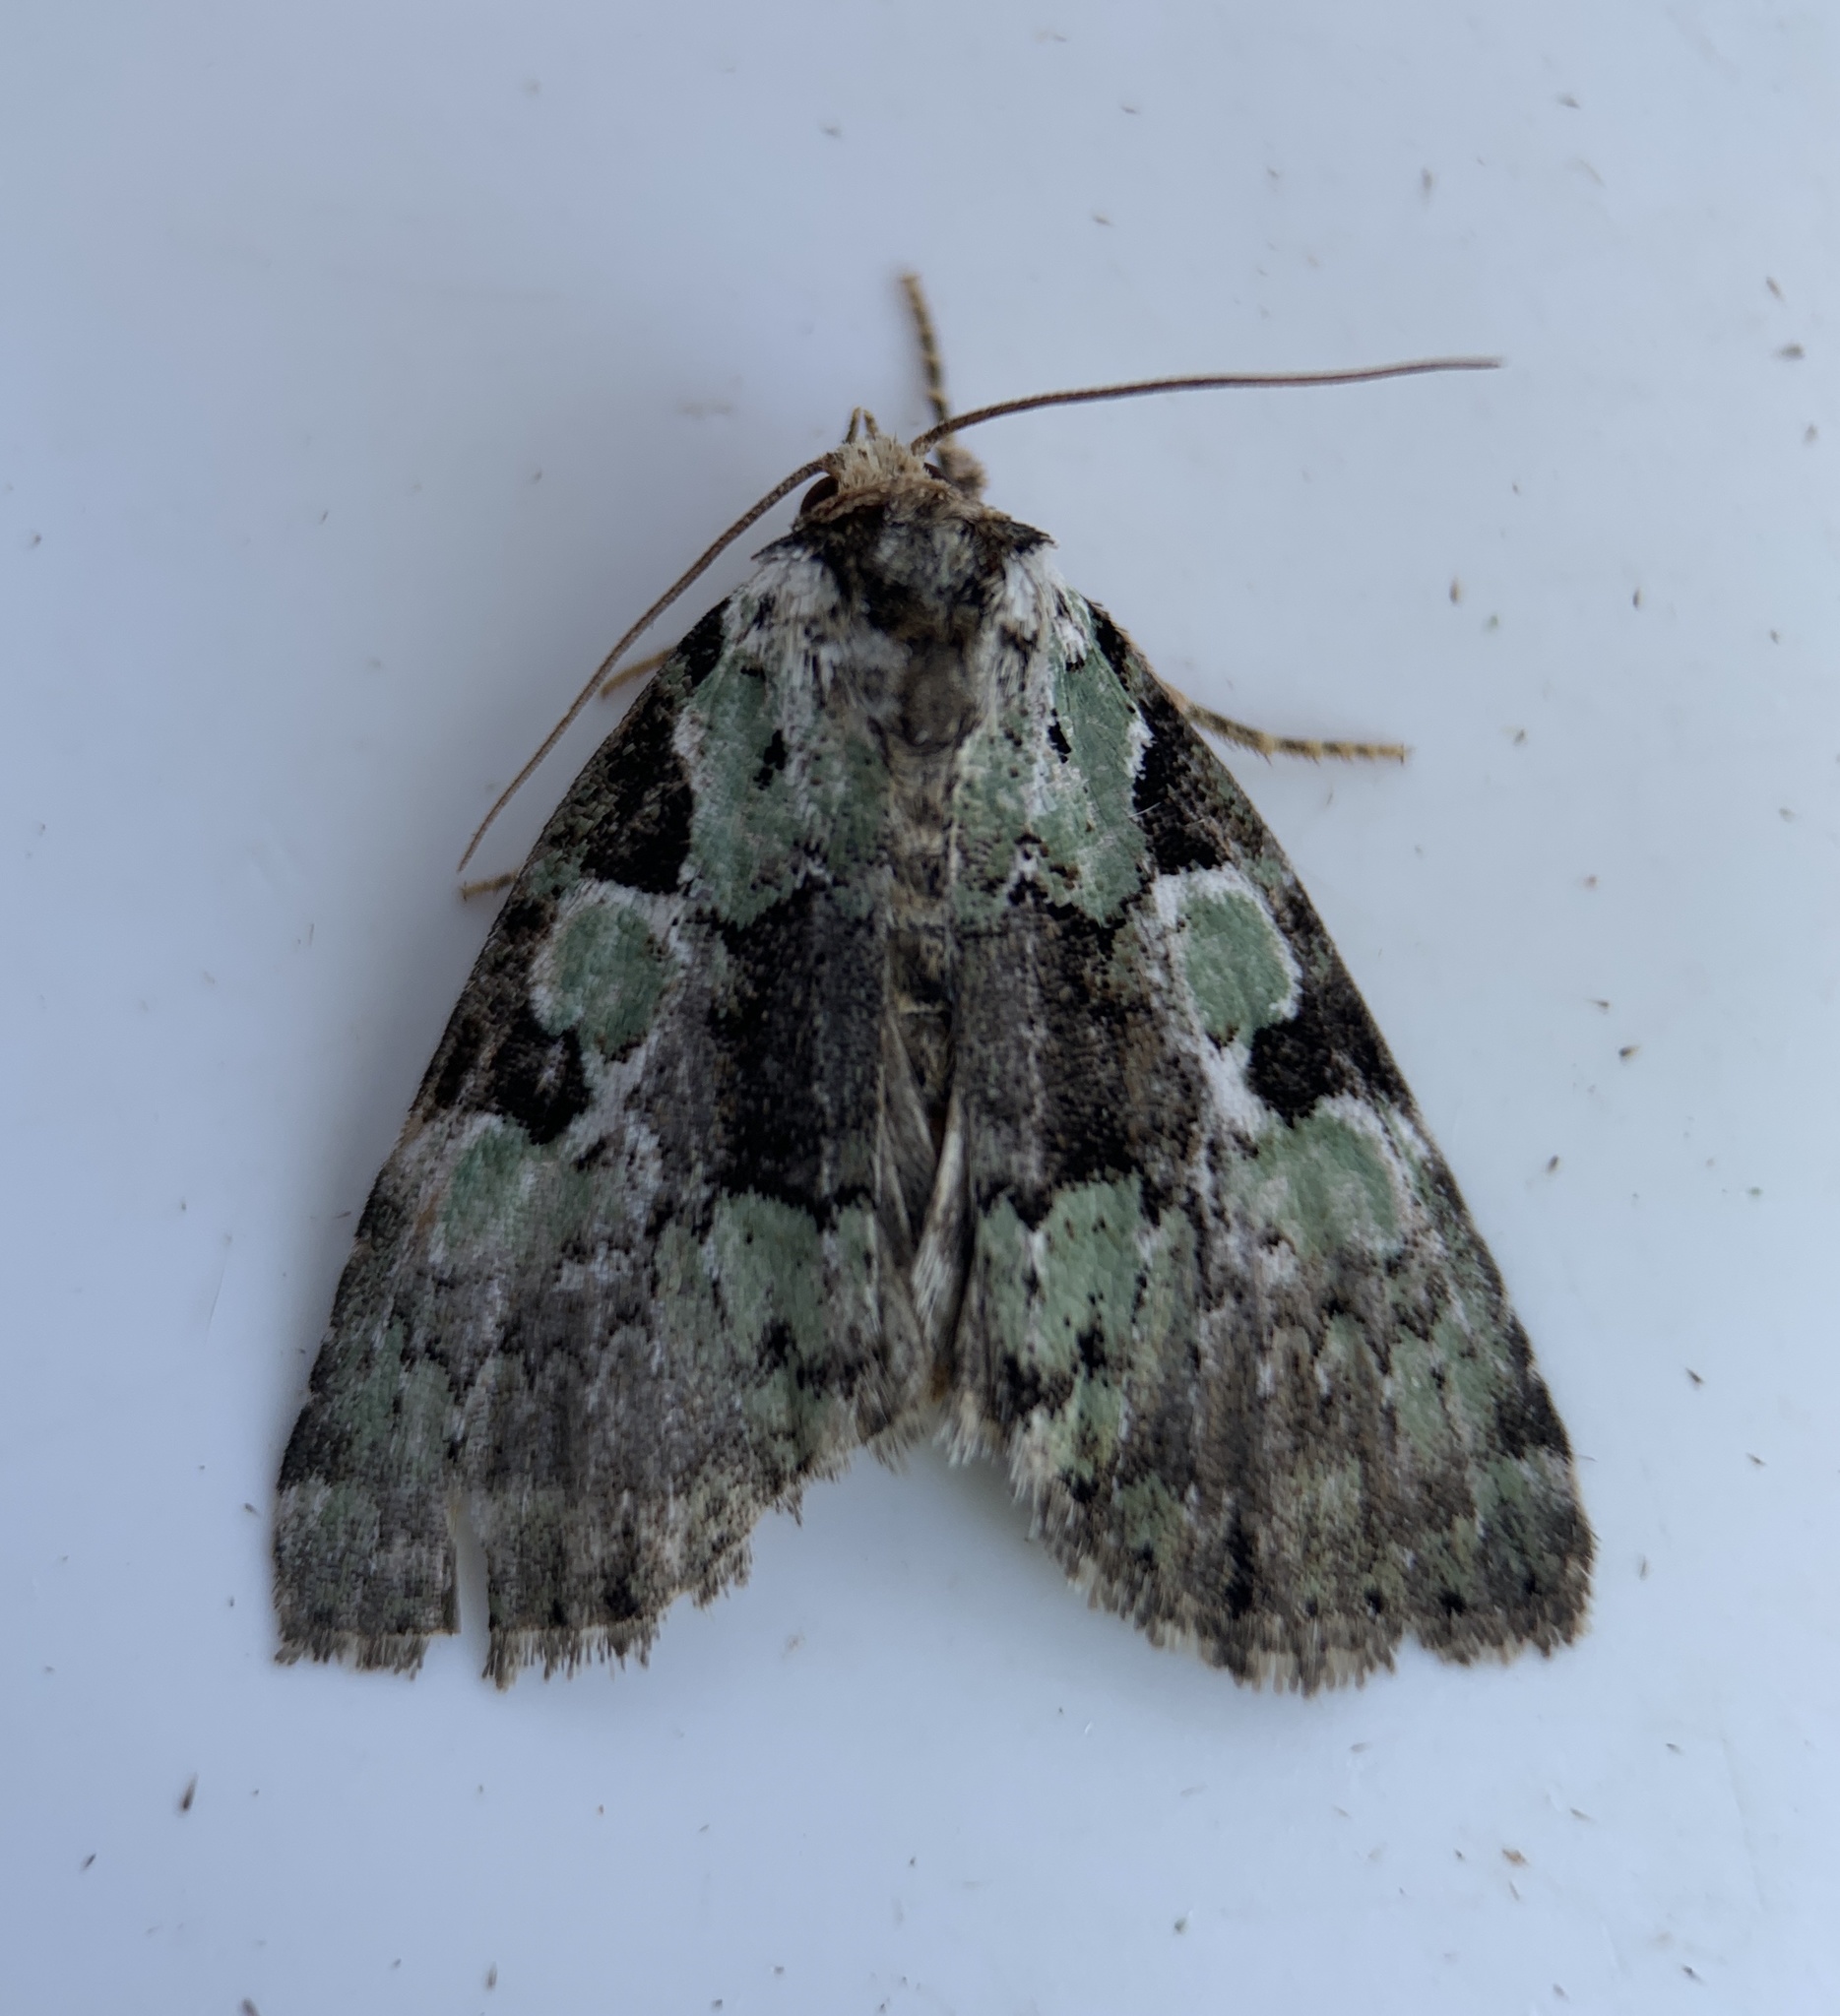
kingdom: Animalia
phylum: Arthropoda
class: Insecta
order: Lepidoptera
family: Noctuidae
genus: Leuconycta
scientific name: Leuconycta lepidula
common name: Marbled-green leuconycta moth
